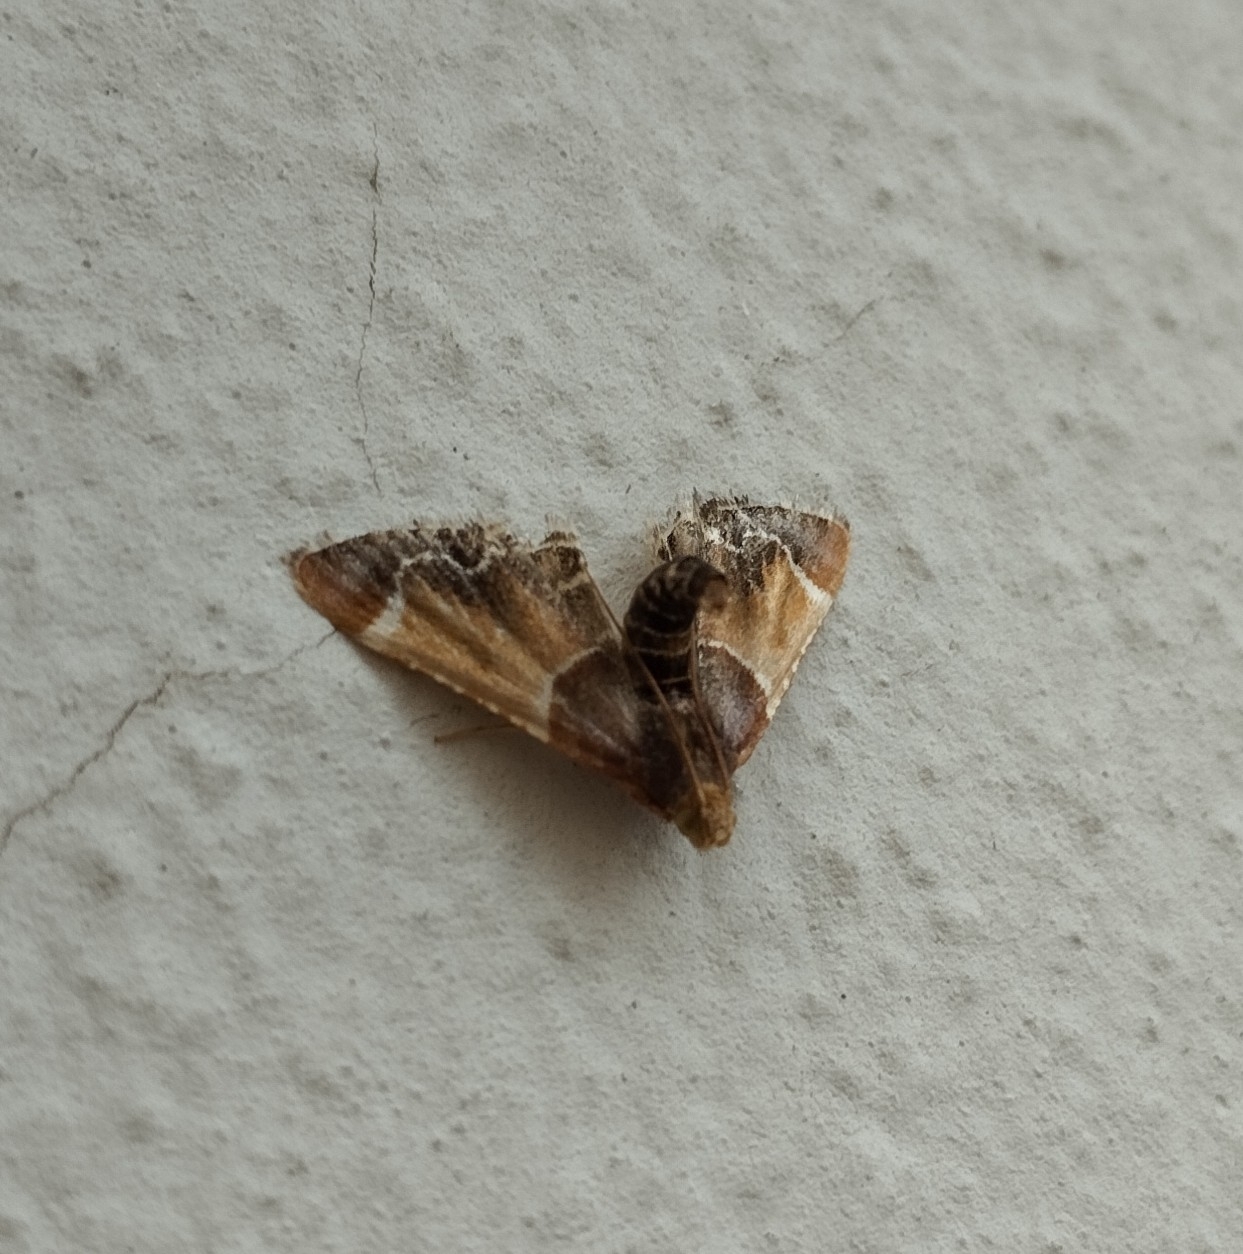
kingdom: Animalia
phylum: Arthropoda
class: Insecta
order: Lepidoptera
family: Pyralidae
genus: Pyralis
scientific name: Pyralis farinalis
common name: Meal moth
